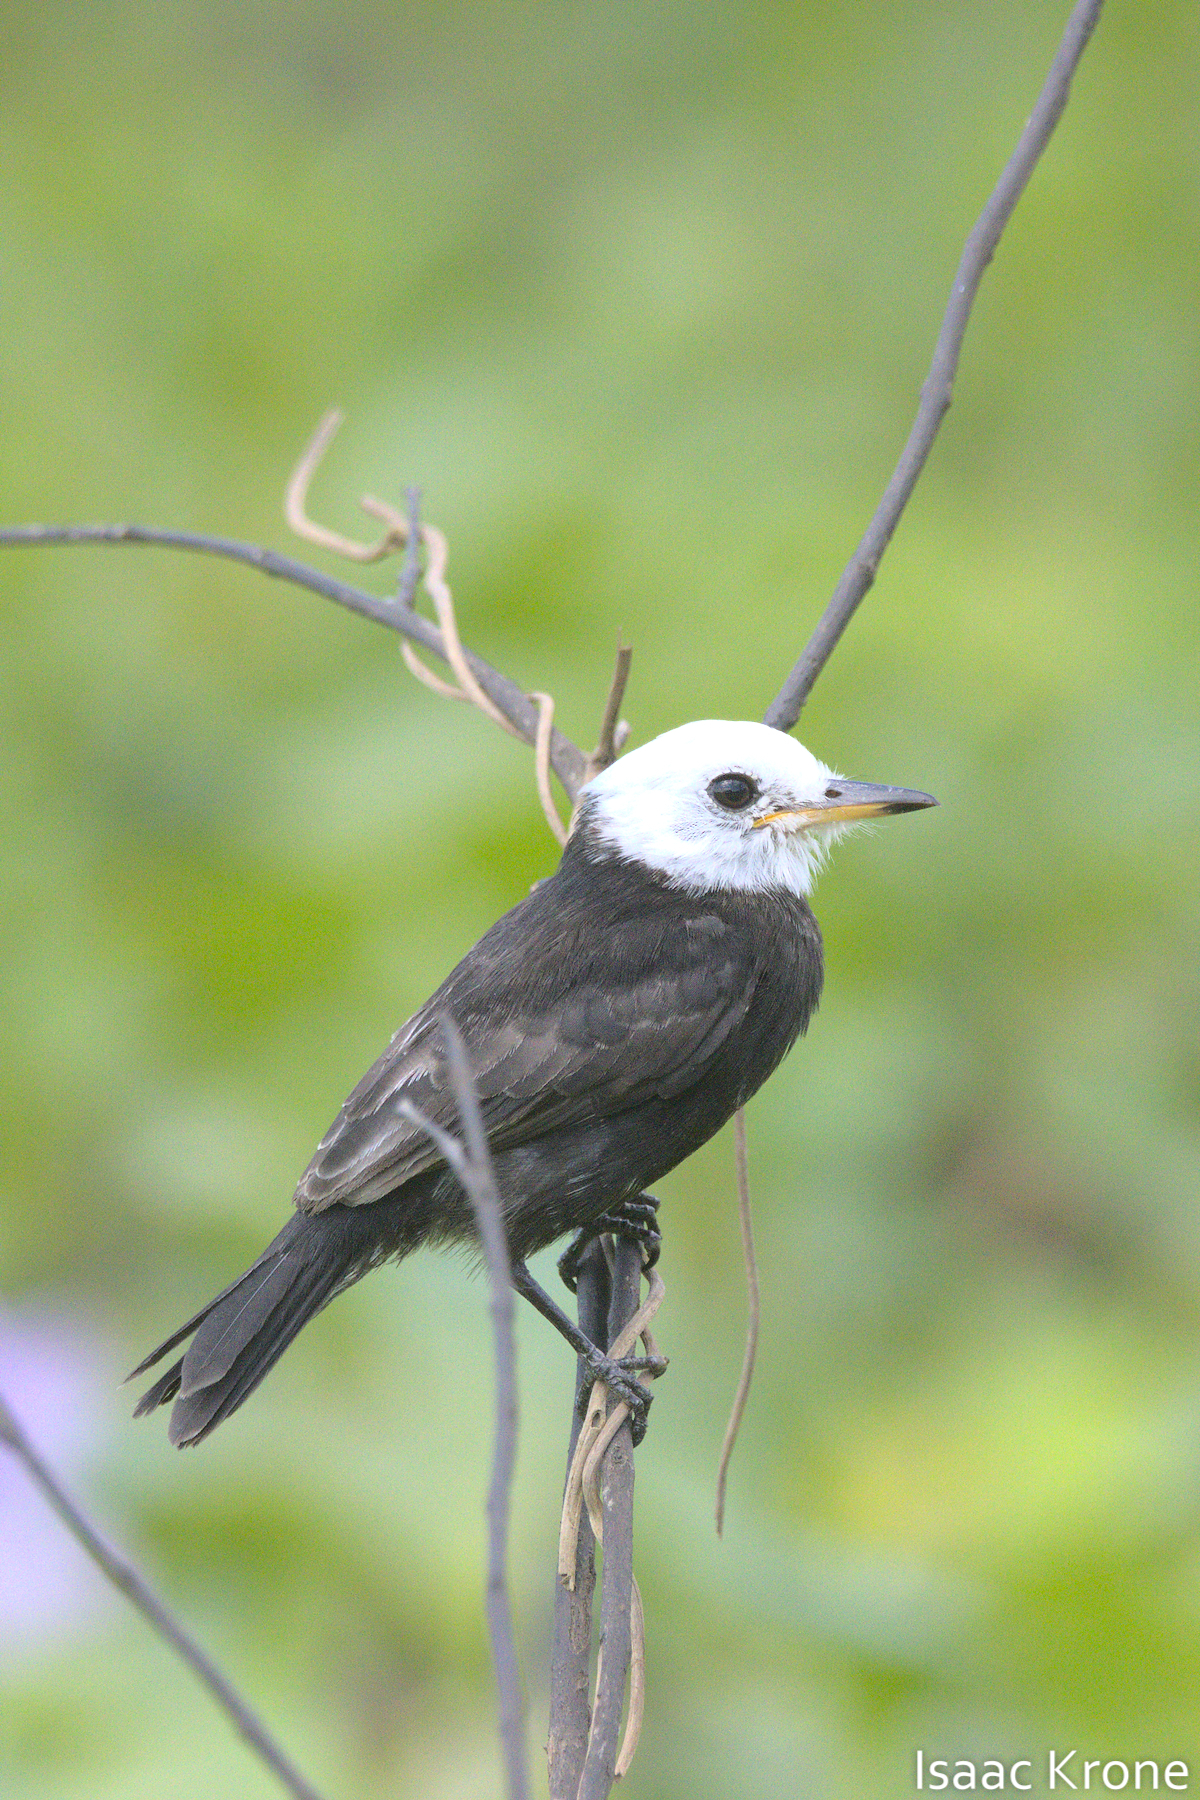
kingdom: Animalia
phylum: Chordata
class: Aves
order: Passeriformes
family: Tyrannidae
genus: Arundinicola
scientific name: Arundinicola leucocephala
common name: White-headed marsh tyrant
